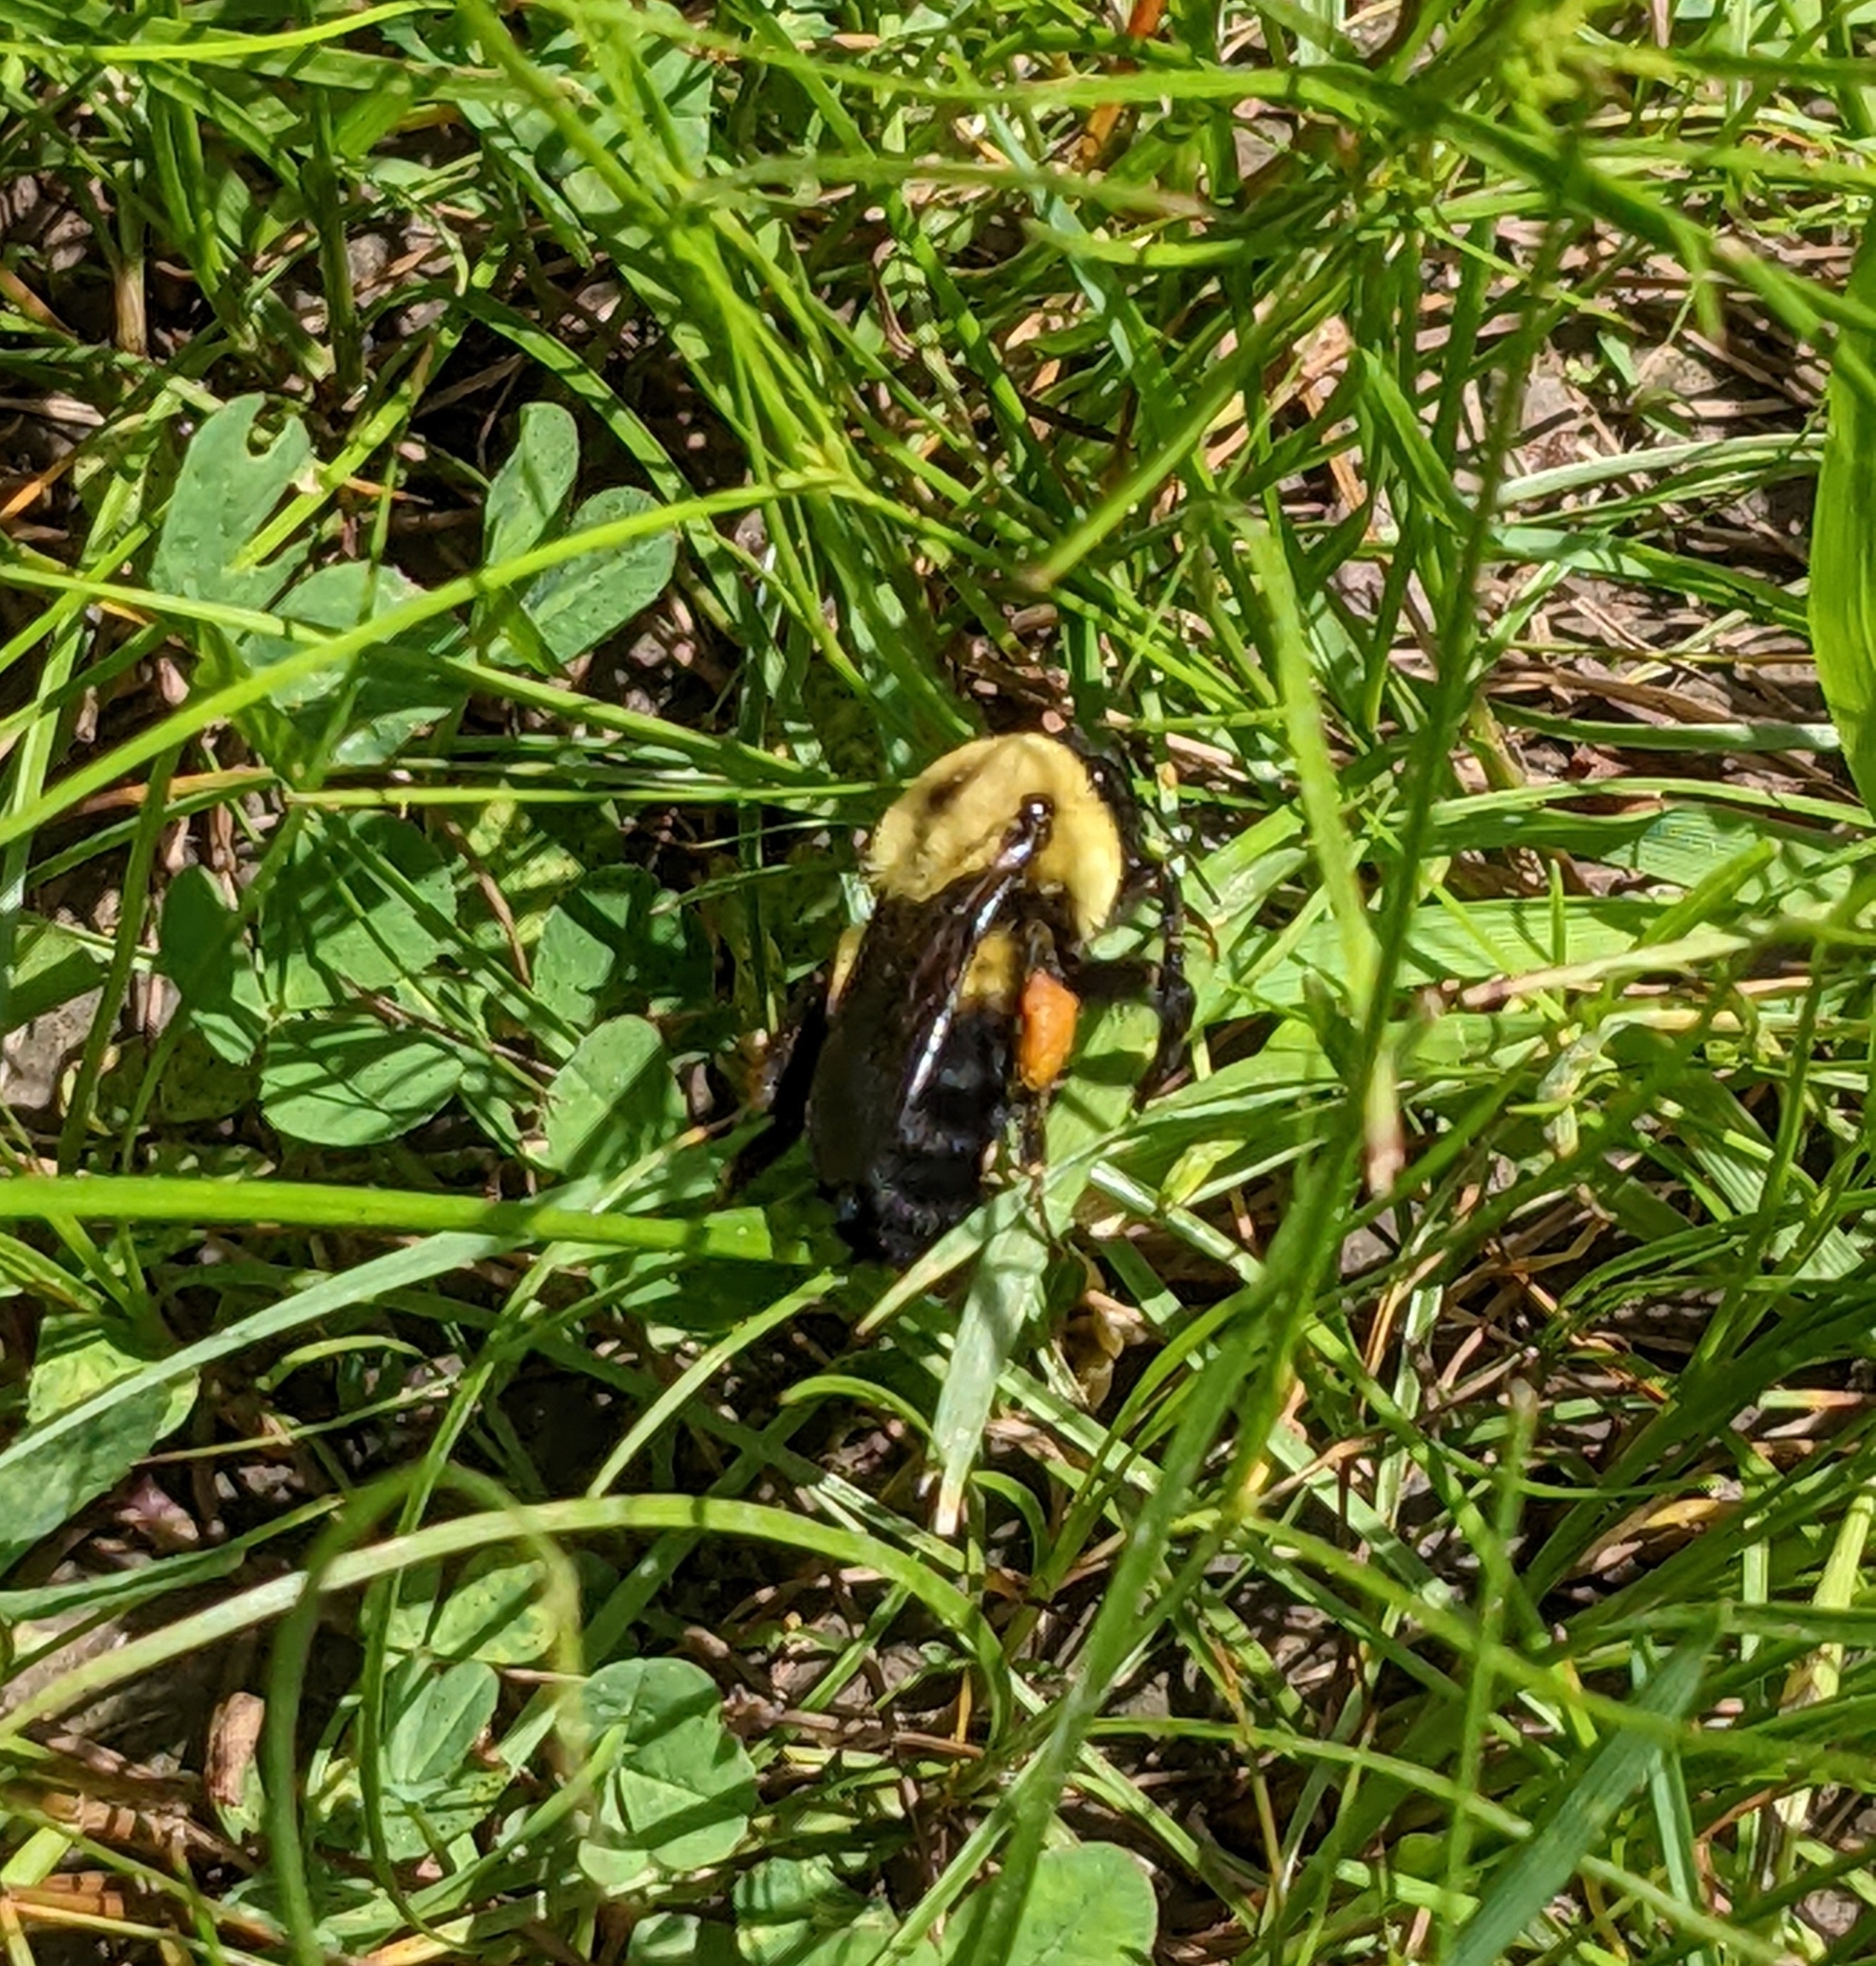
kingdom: Animalia
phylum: Arthropoda
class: Insecta
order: Hymenoptera
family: Apidae
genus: Bombus
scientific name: Bombus griseocollis
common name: Brown-belted bumble bee
